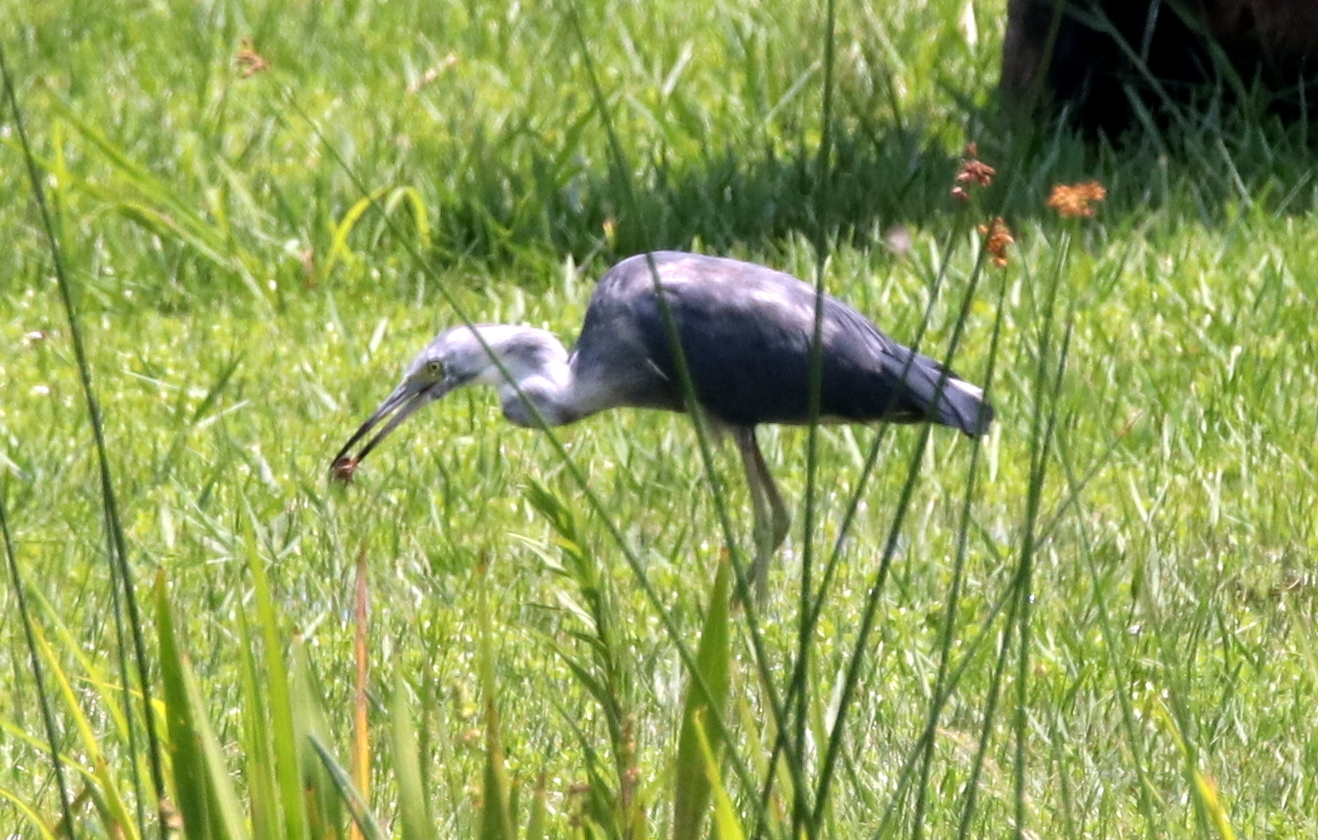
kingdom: Animalia
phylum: Chordata
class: Aves
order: Pelecaniformes
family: Ardeidae
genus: Egretta
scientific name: Egretta caerulea
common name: Little blue heron
